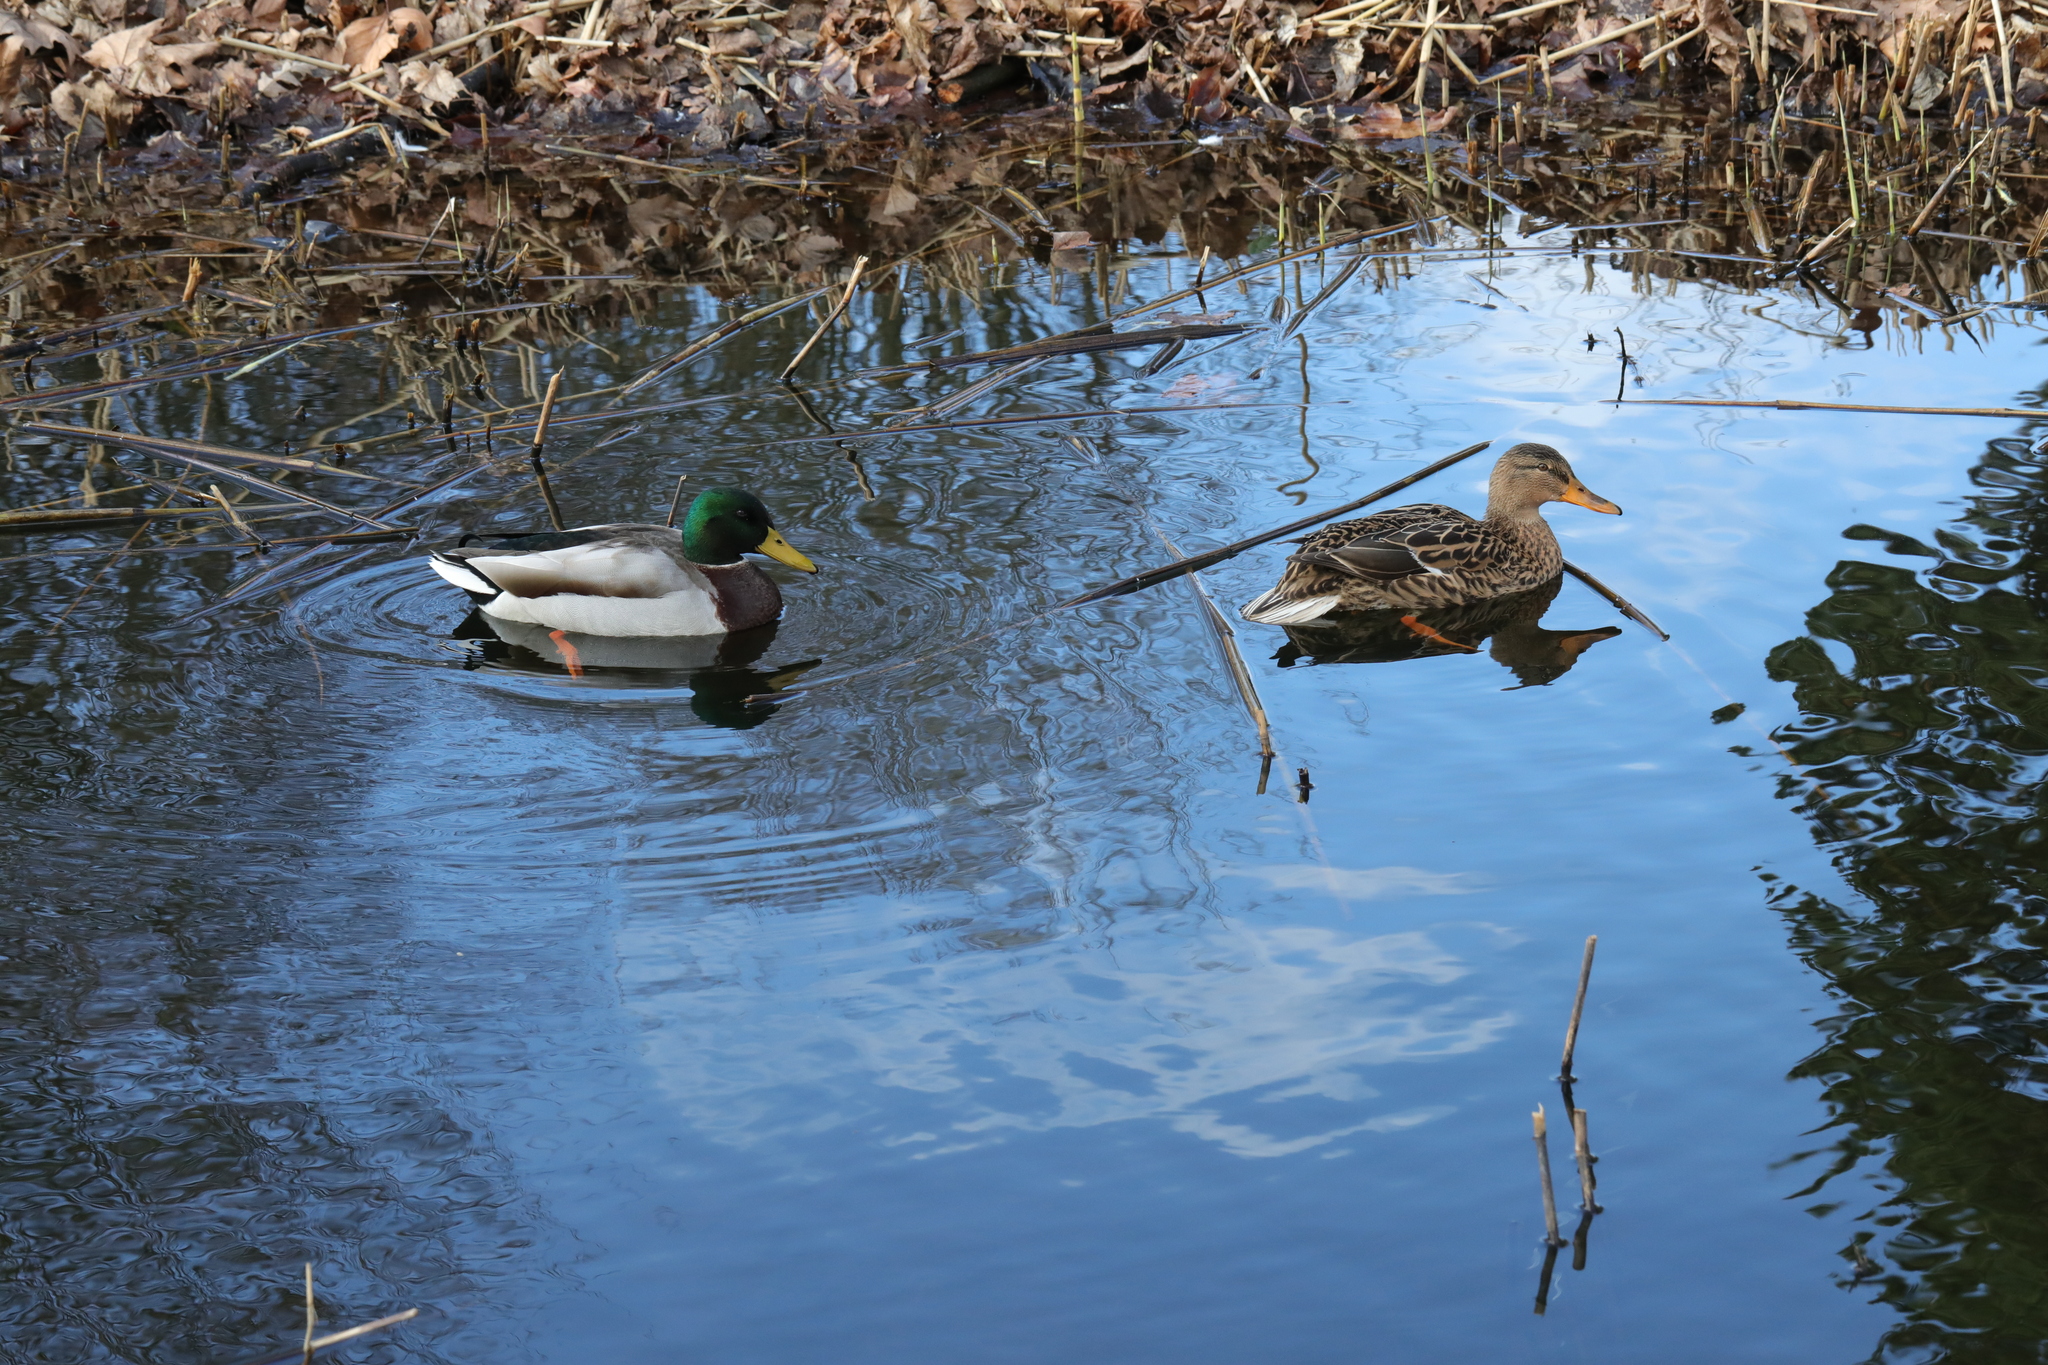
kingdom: Animalia
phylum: Chordata
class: Aves
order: Anseriformes
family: Anatidae
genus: Anas
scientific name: Anas platyrhynchos
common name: Mallard
